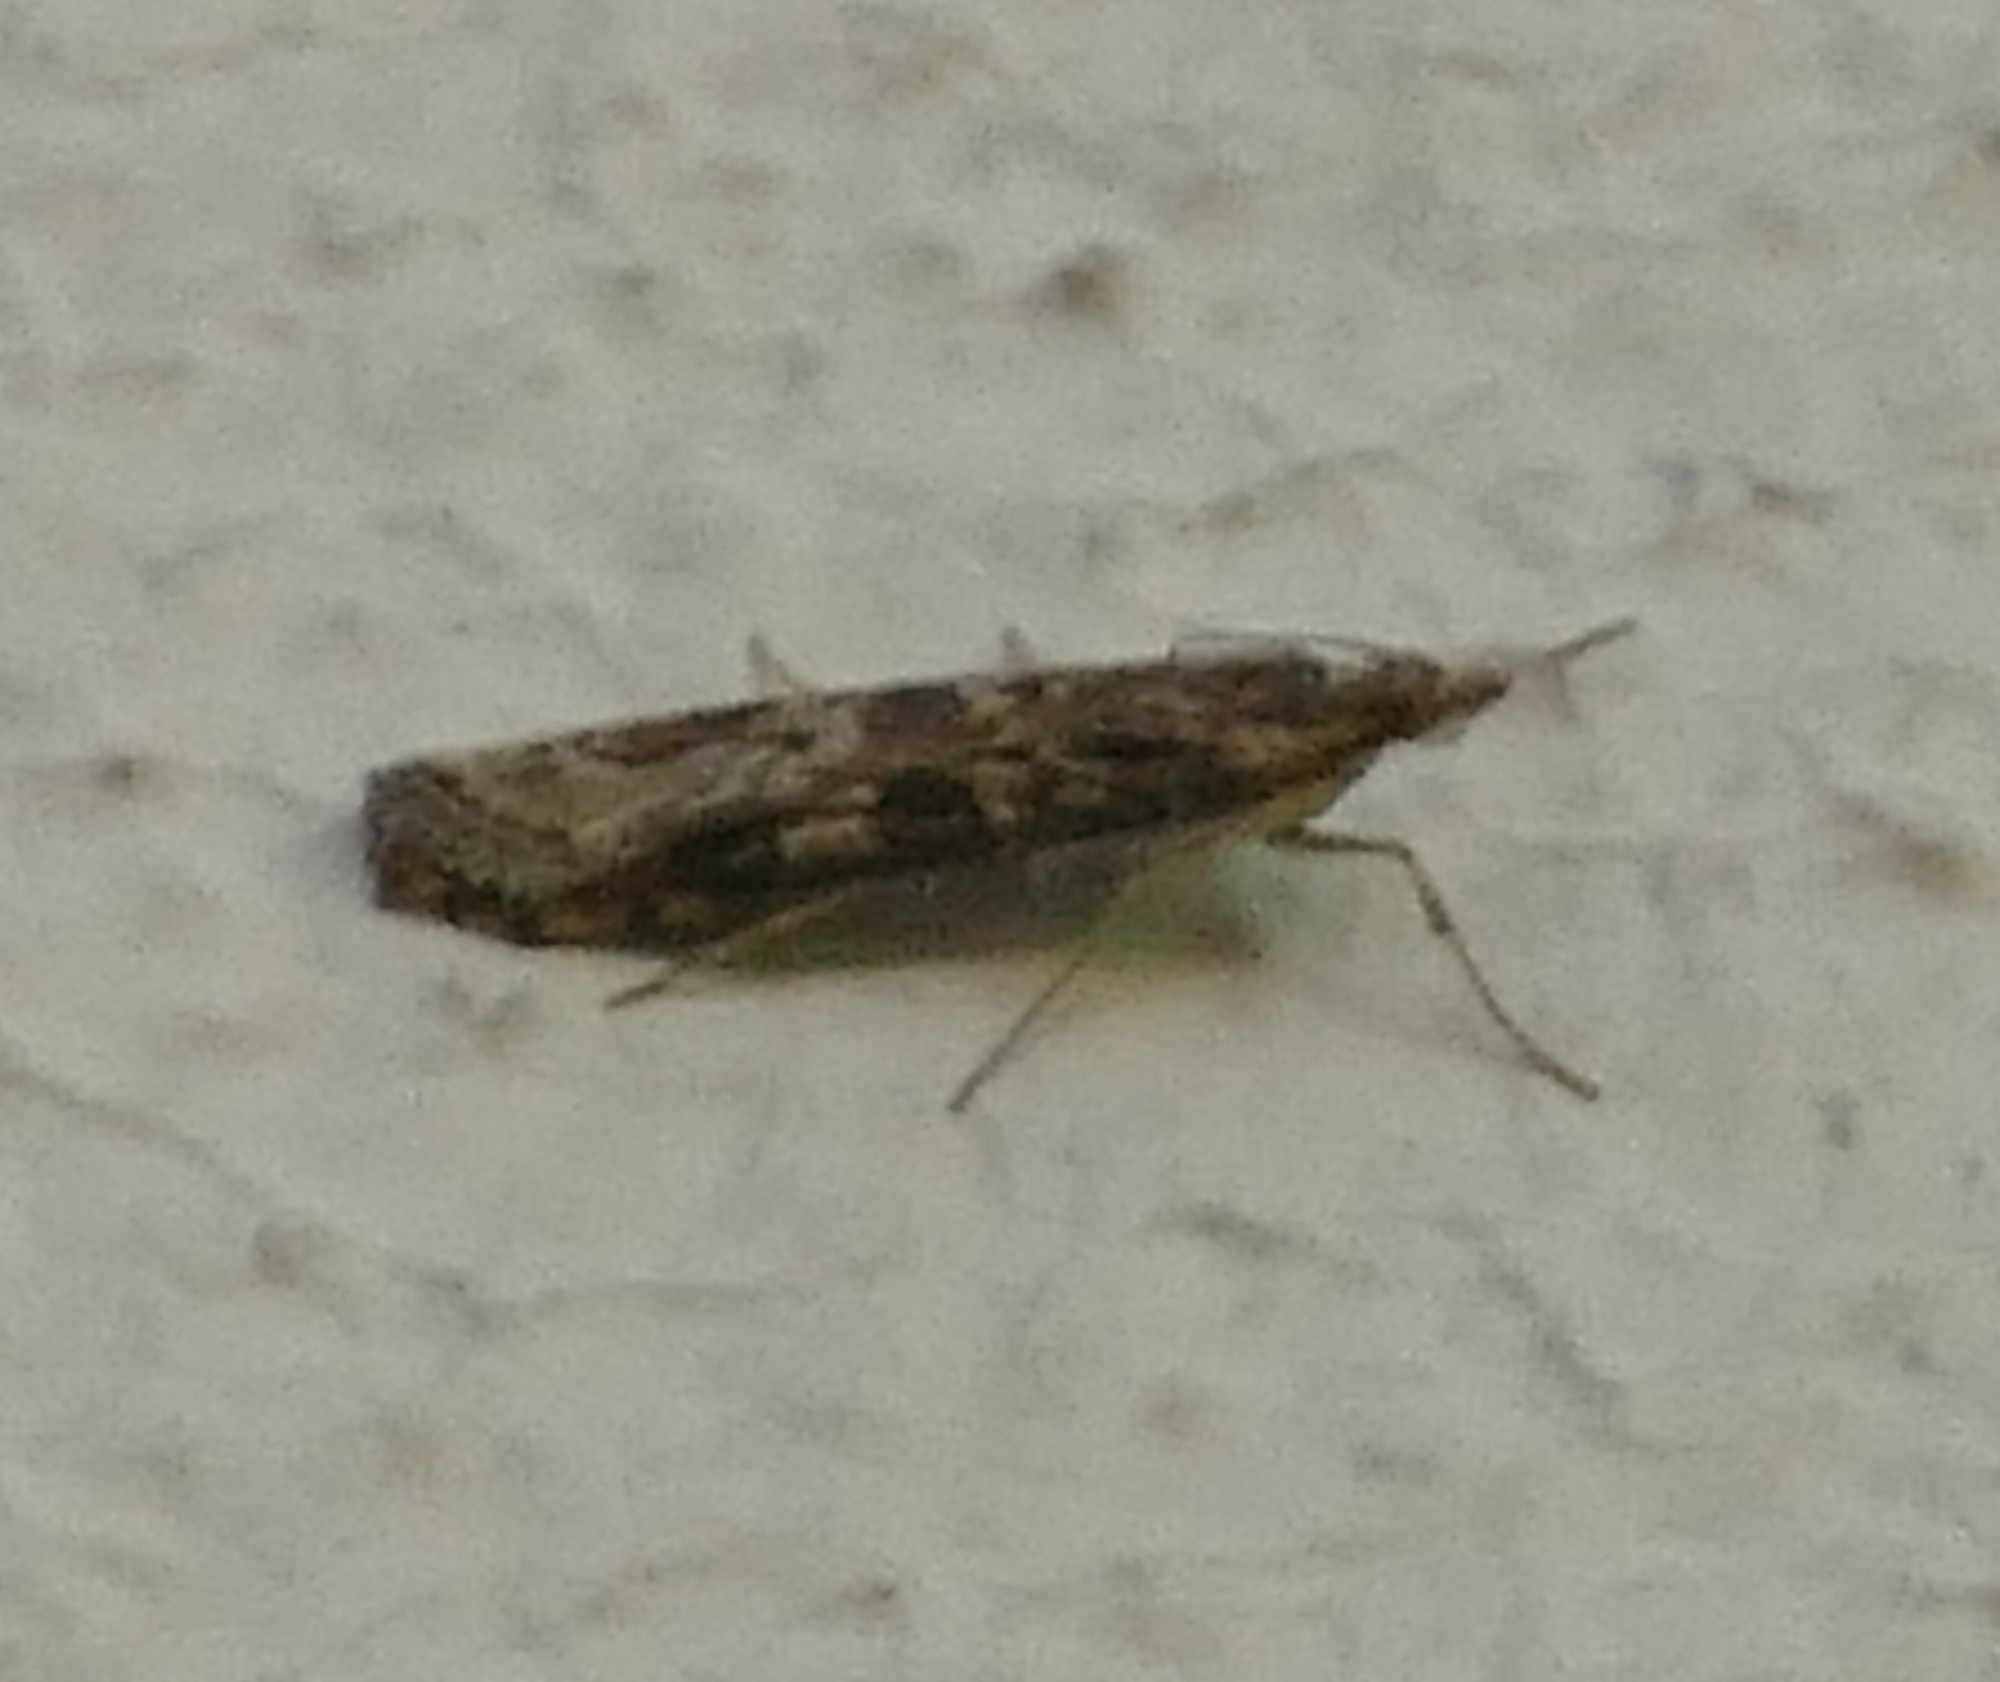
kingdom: Animalia
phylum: Arthropoda
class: Insecta
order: Lepidoptera
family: Crambidae
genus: Nomophila
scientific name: Nomophila nearctica
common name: American rush veneer
